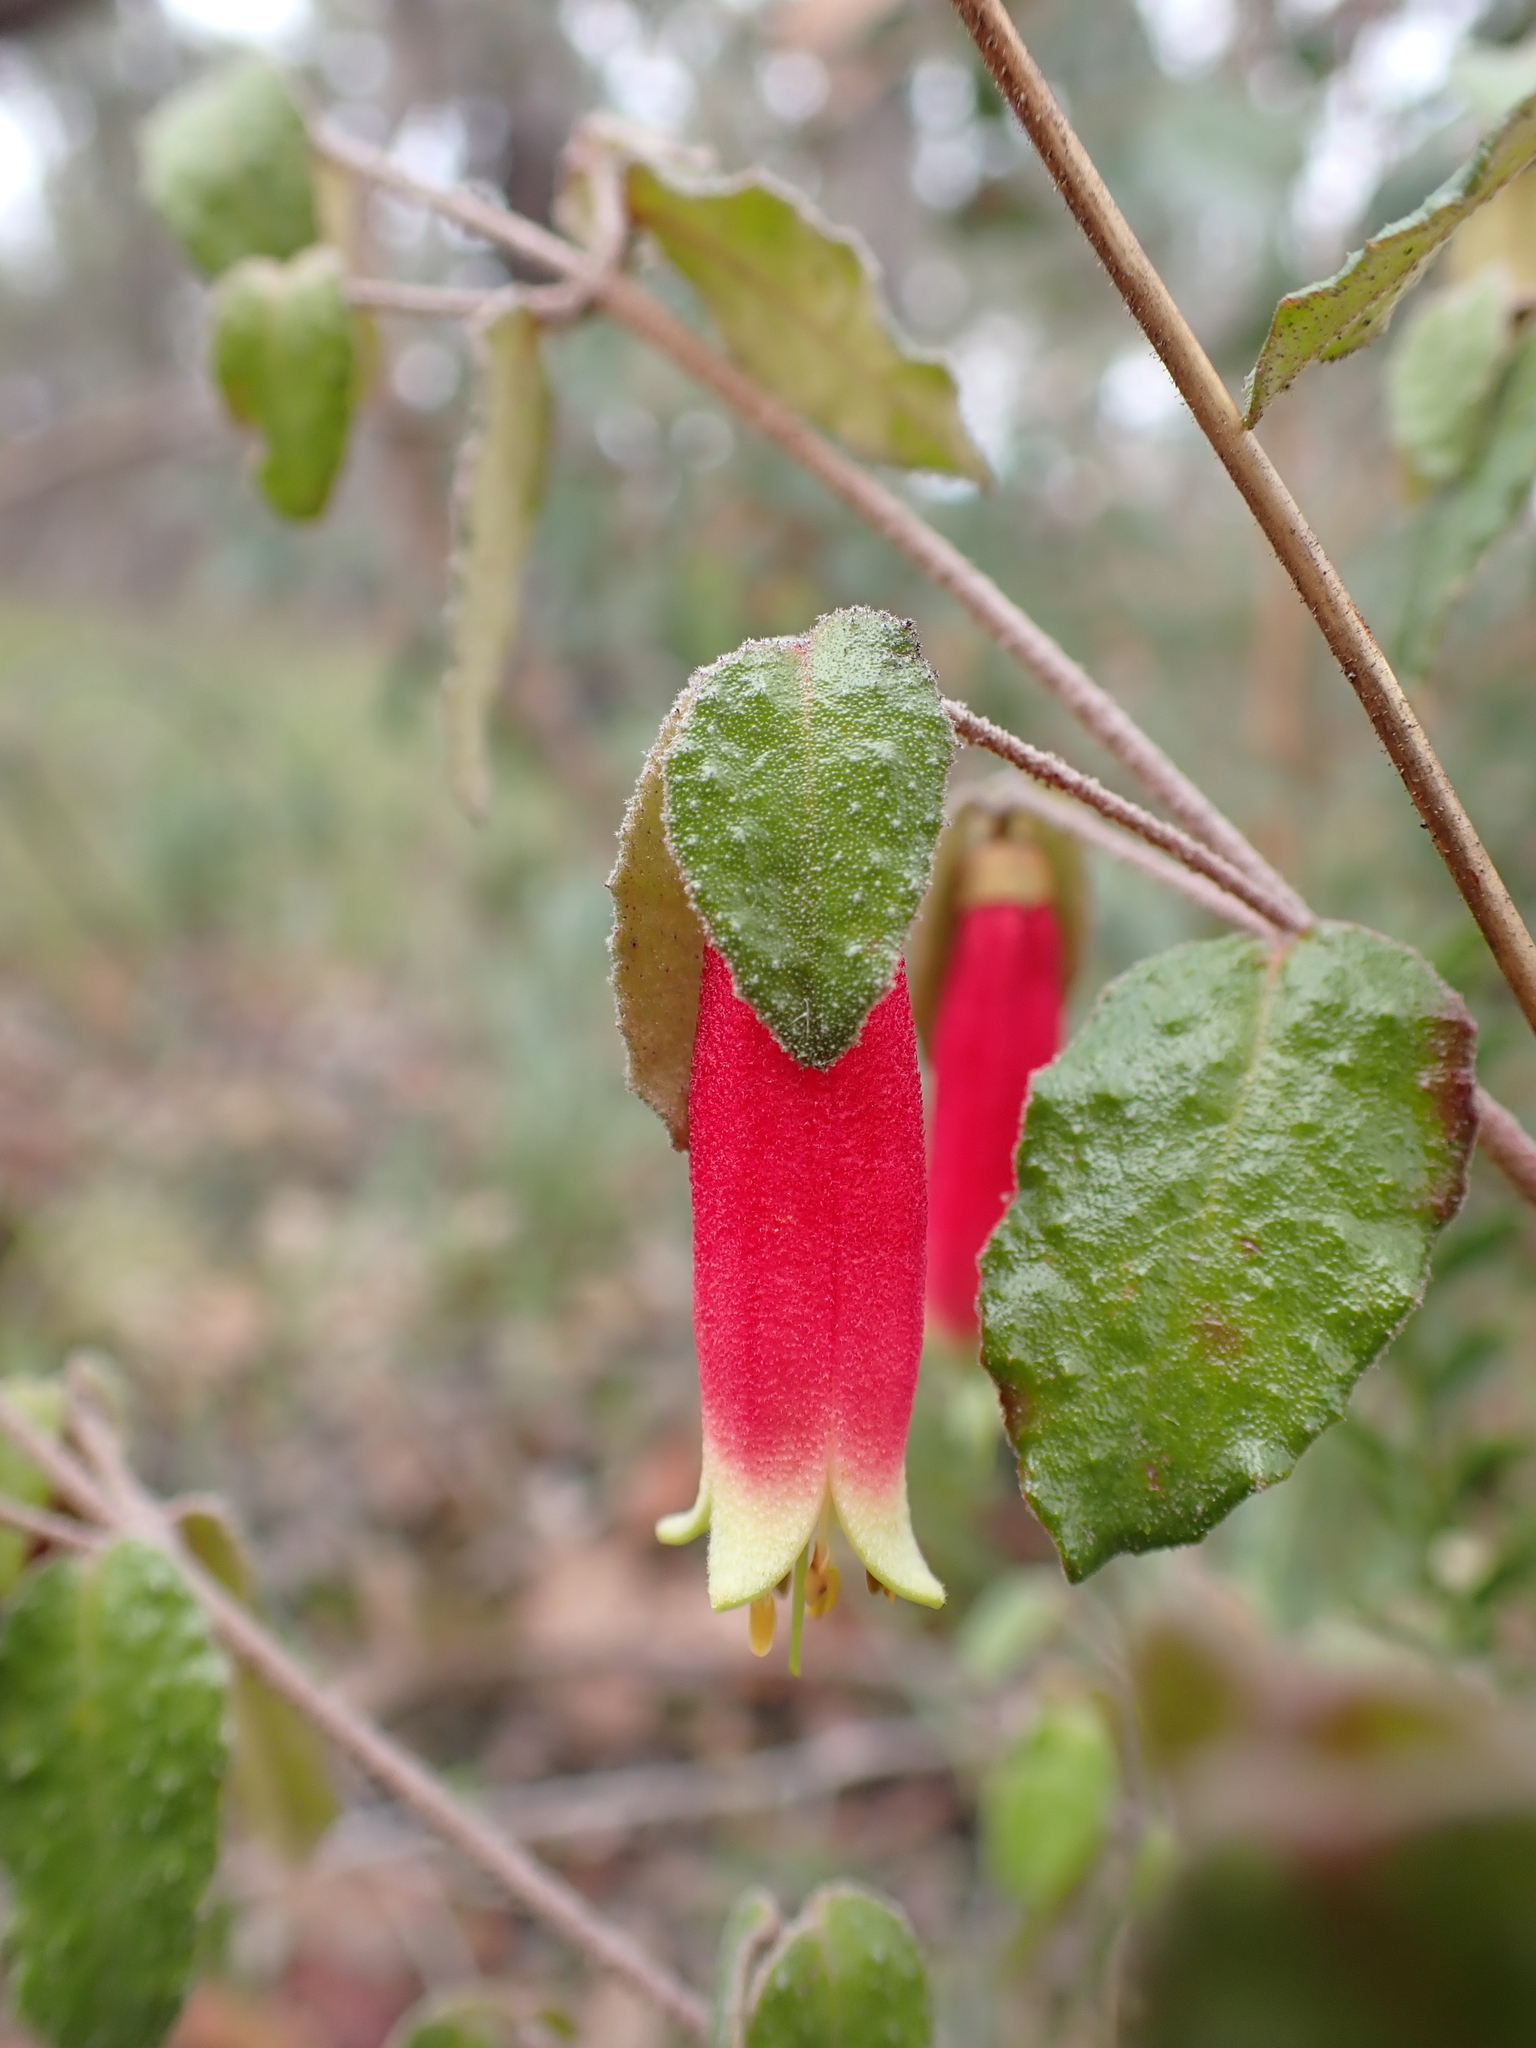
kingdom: Plantae
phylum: Tracheophyta
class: Magnoliopsida
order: Sapindales
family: Rutaceae
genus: Correa
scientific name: Correa reflexa
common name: Common correa
